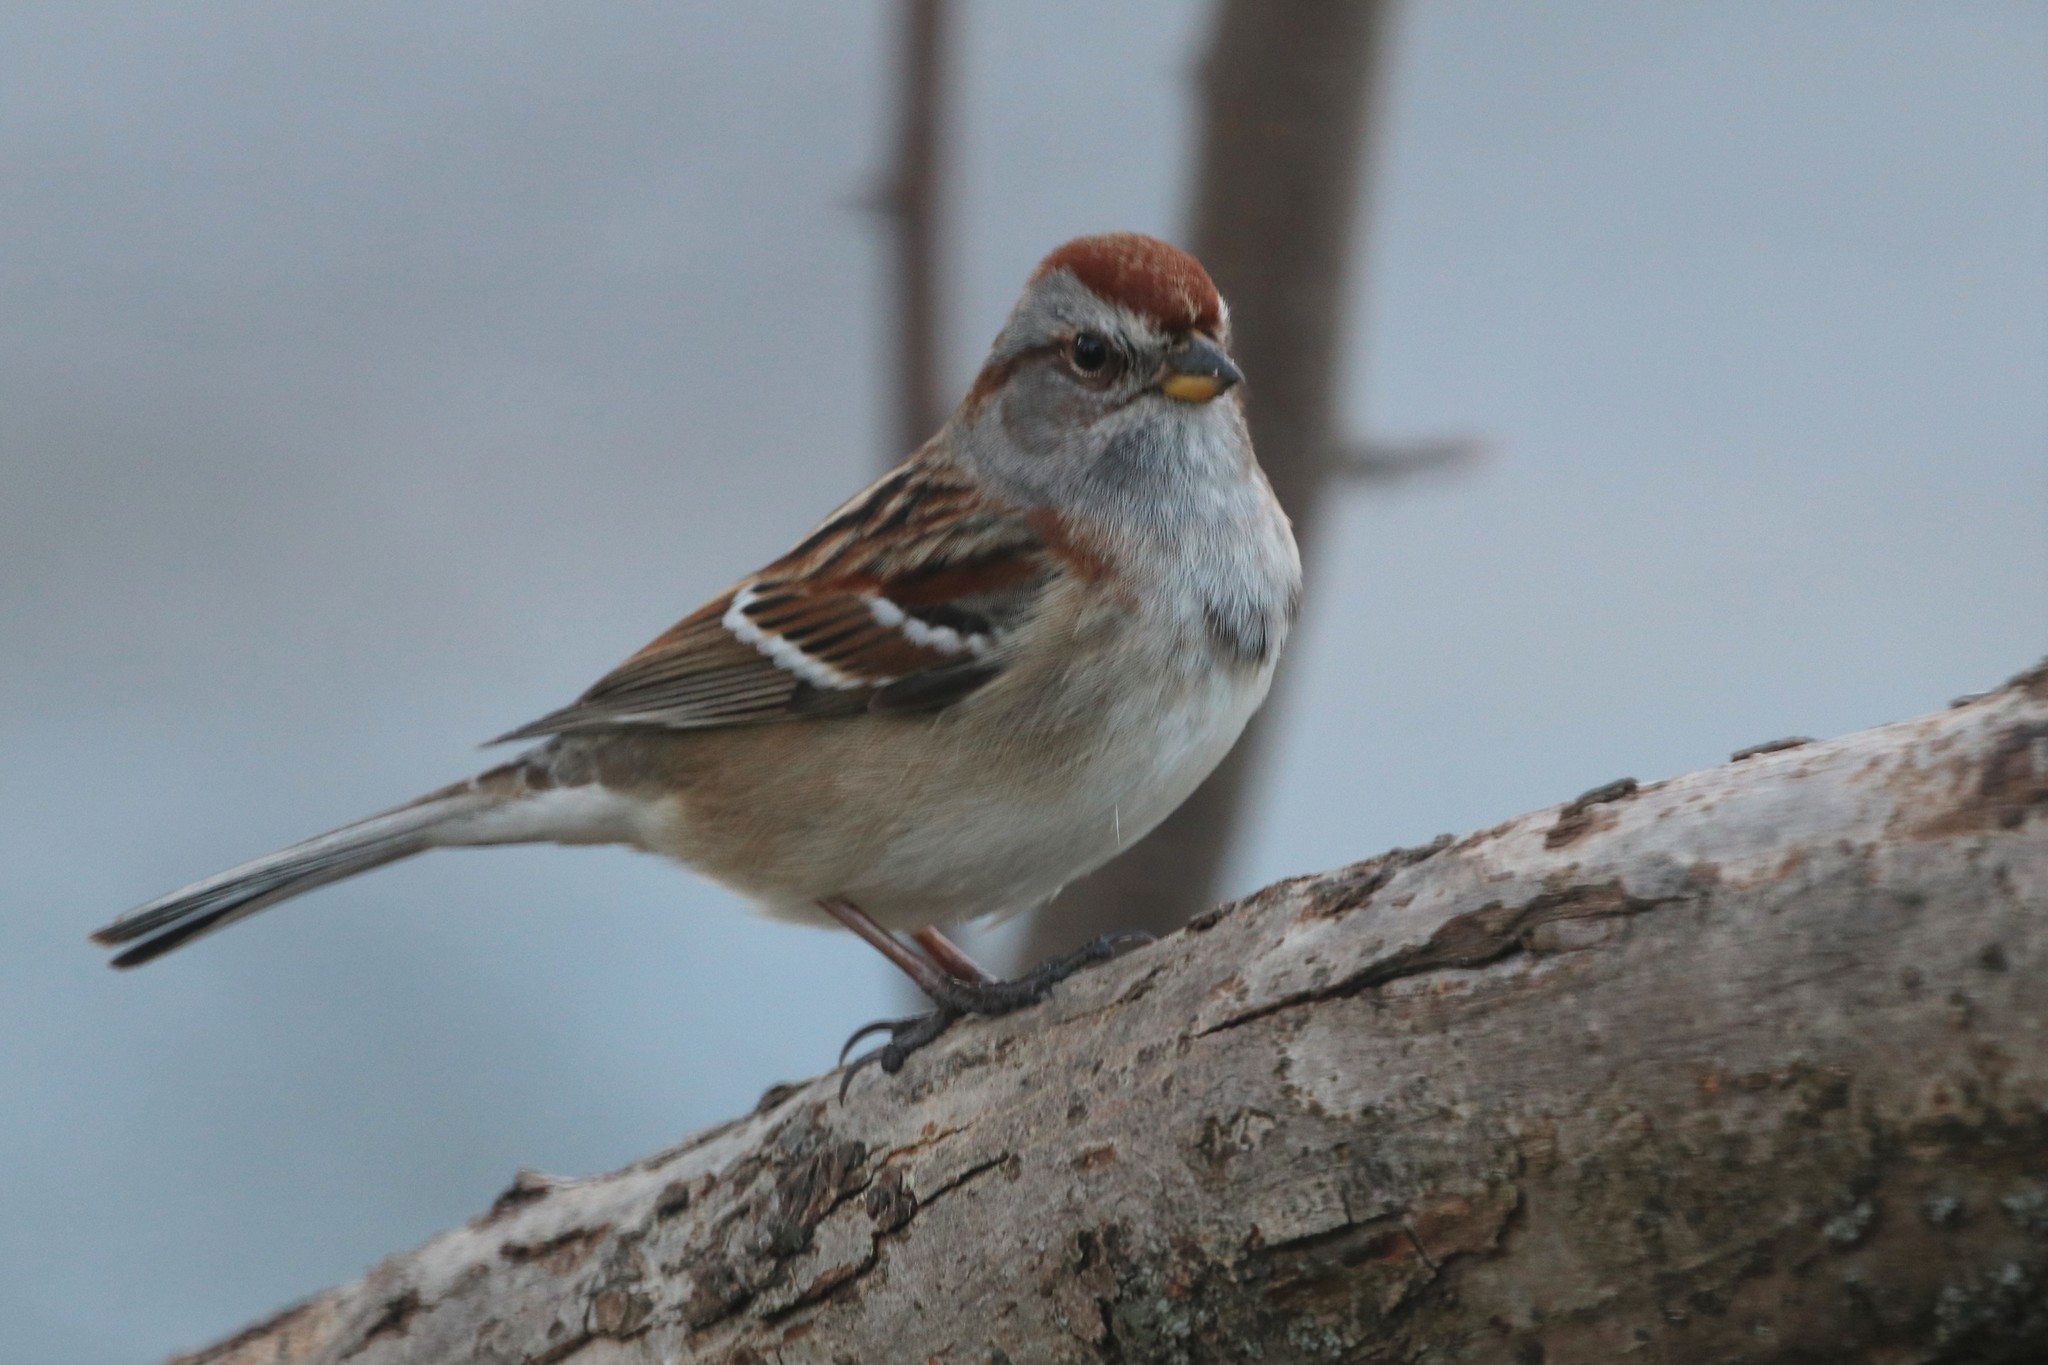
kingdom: Animalia
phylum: Chordata
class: Aves
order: Passeriformes
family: Passerellidae
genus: Spizelloides
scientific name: Spizelloides arborea
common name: American tree sparrow
